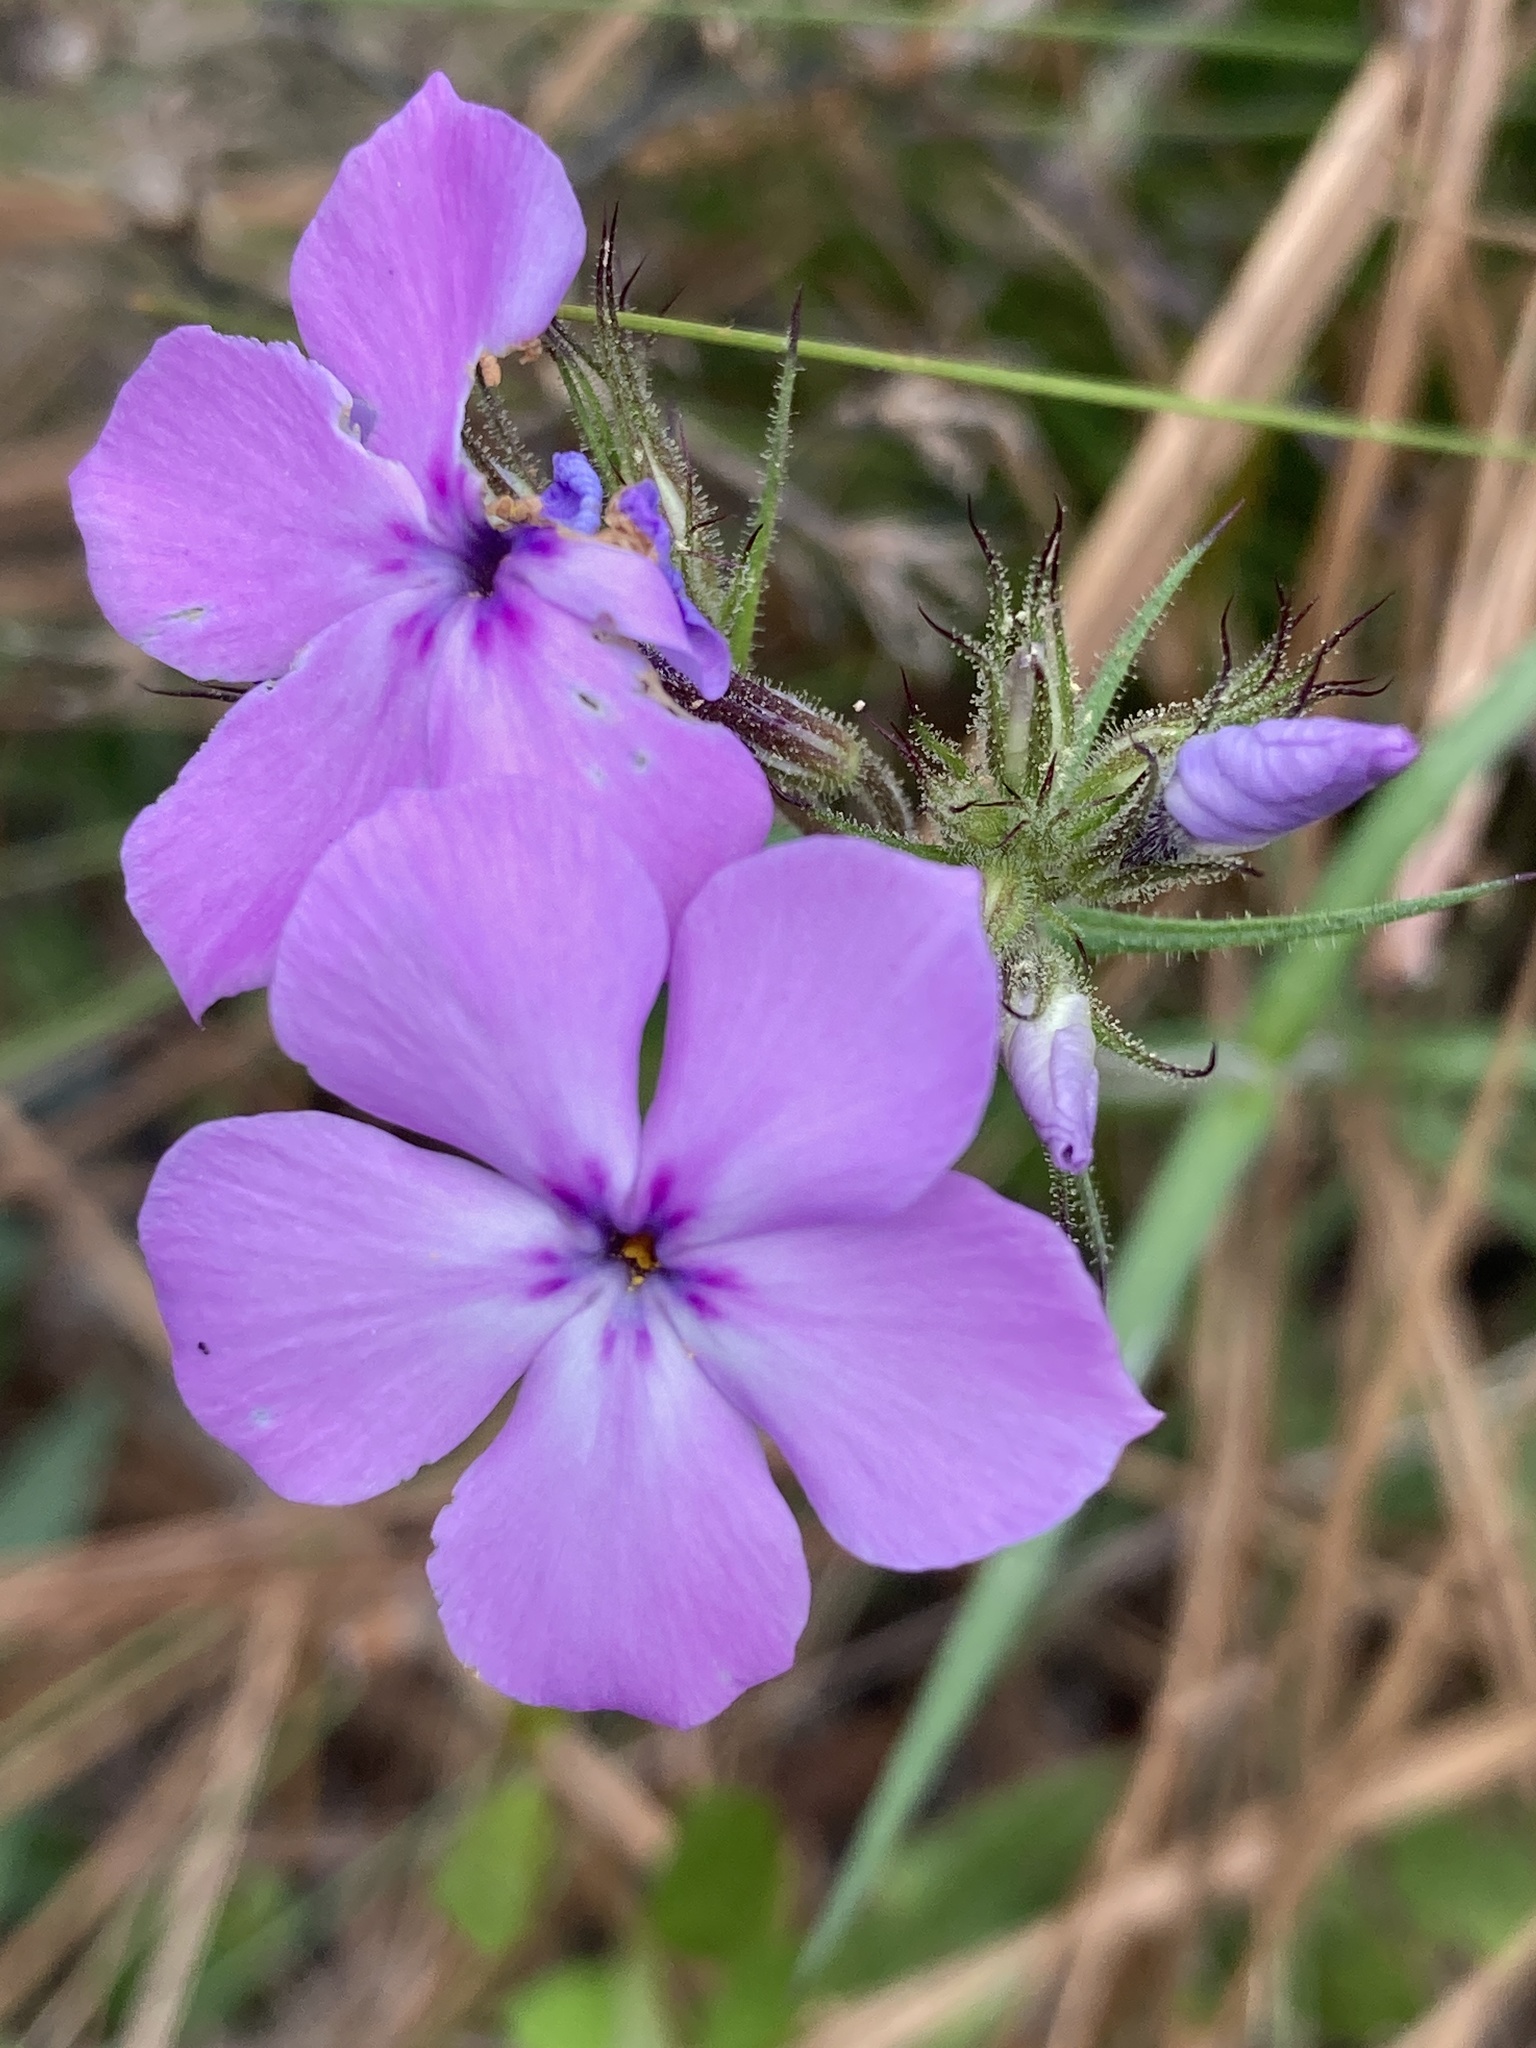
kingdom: Plantae
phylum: Tracheophyta
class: Magnoliopsida
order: Ericales
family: Polemoniaceae
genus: Phlox
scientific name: Phlox pilosa
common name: Prairie phlox
